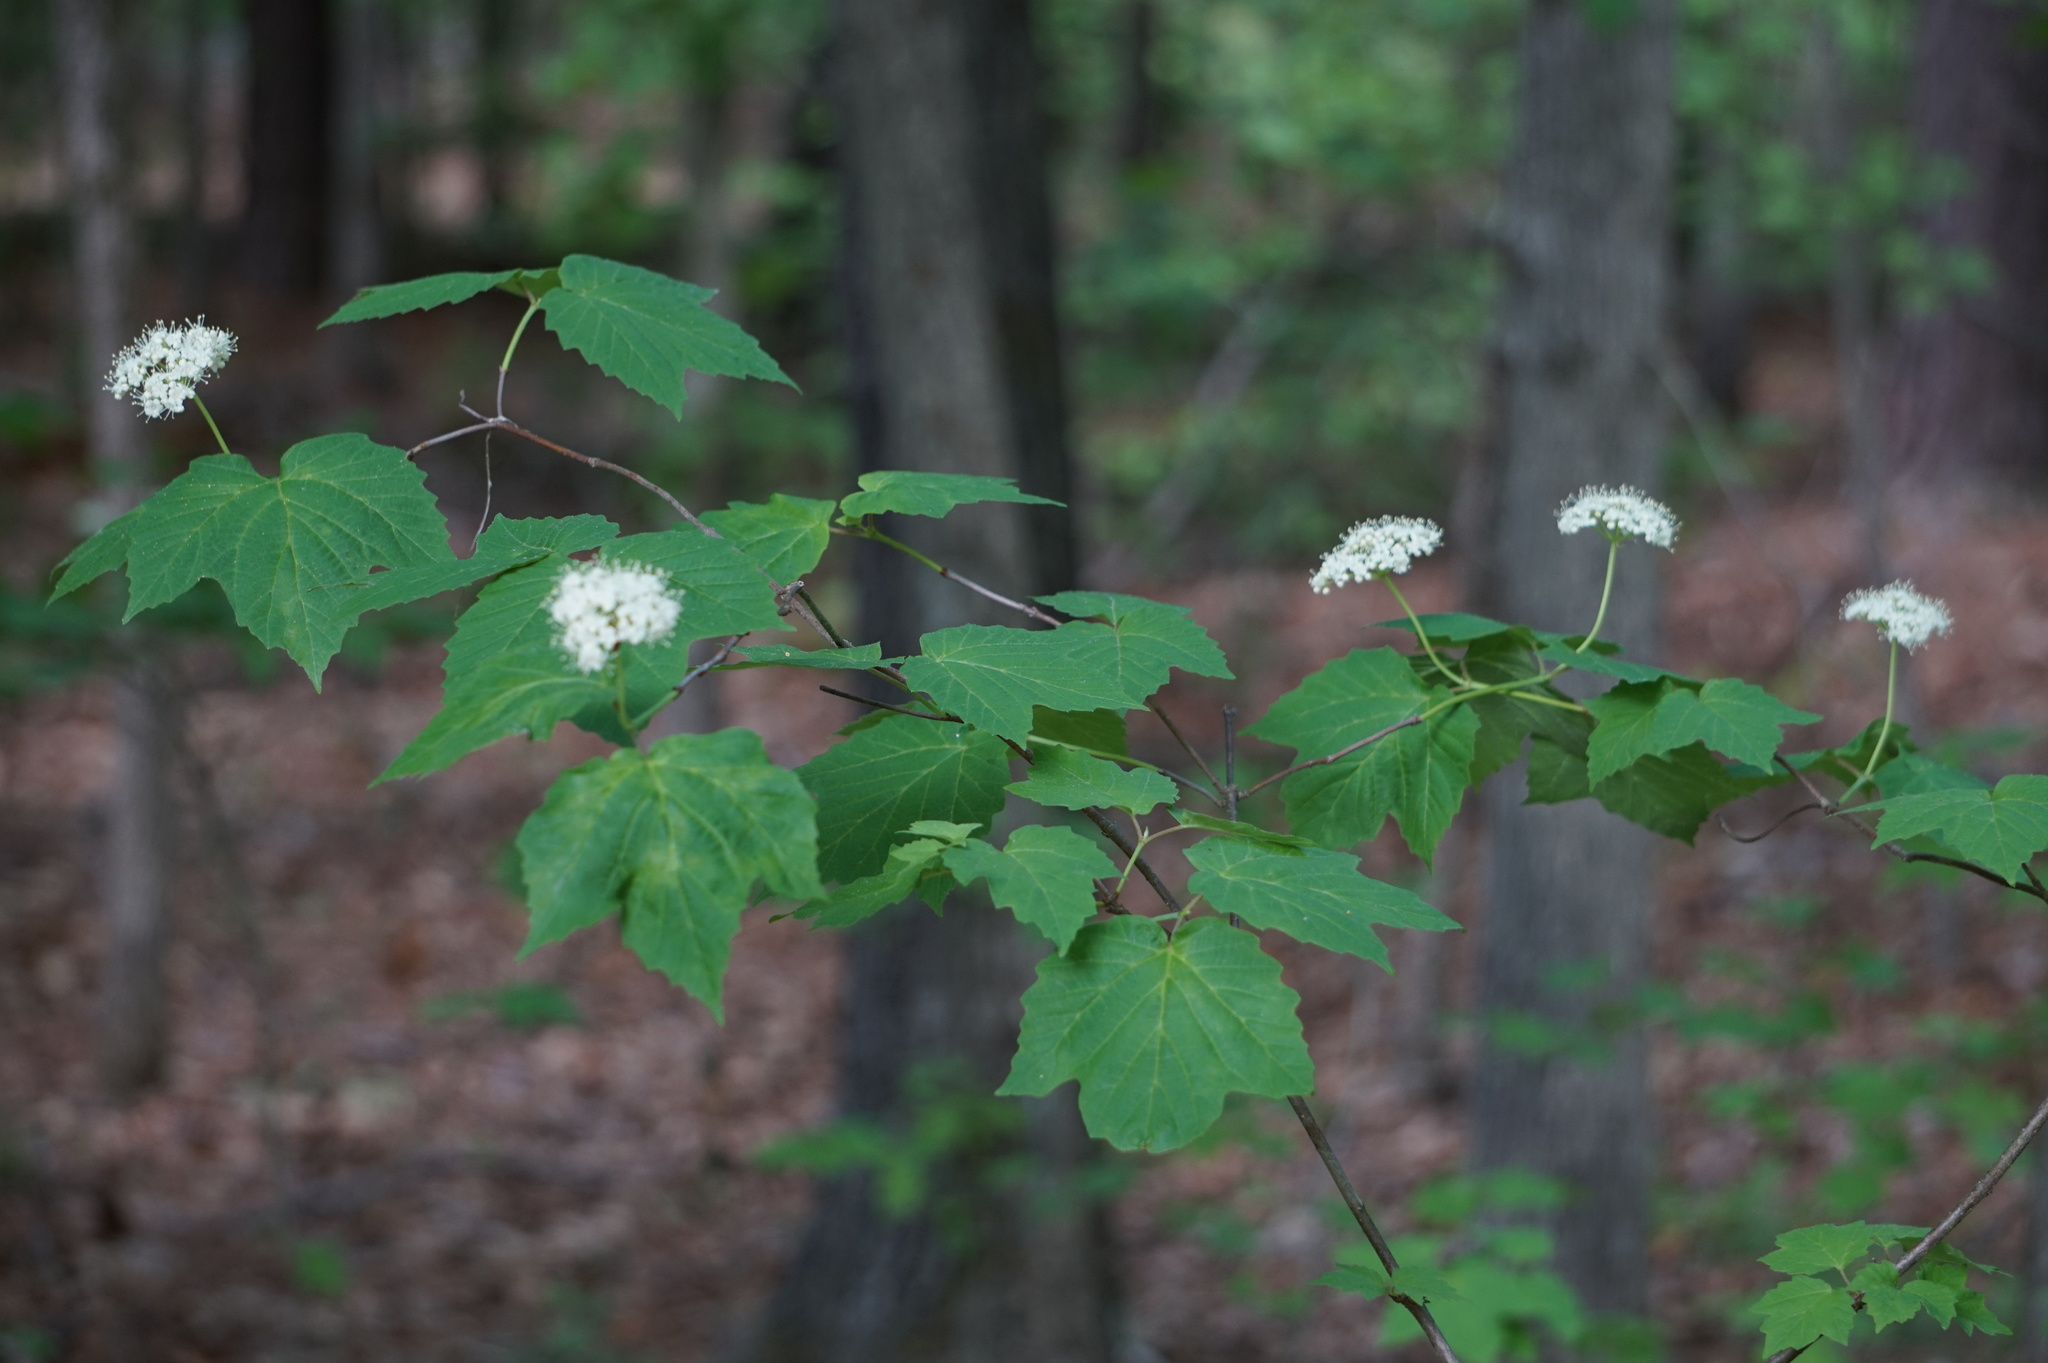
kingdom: Plantae
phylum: Tracheophyta
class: Magnoliopsida
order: Dipsacales
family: Viburnaceae
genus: Viburnum
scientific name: Viburnum acerifolium
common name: Dockmackie
